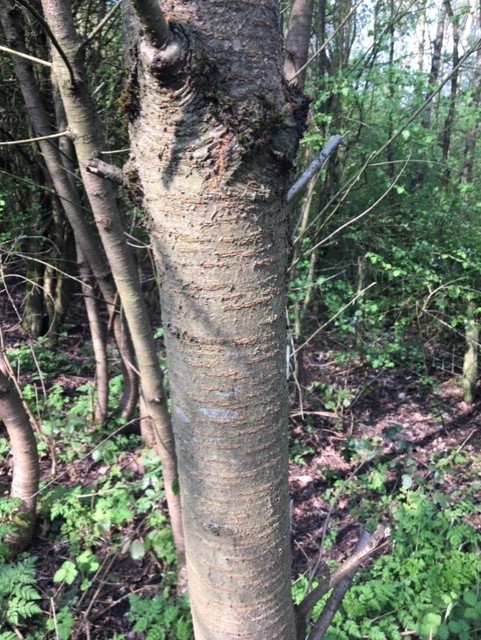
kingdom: Plantae
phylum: Tracheophyta
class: Magnoliopsida
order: Rosales
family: Rosaceae
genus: Prunus
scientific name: Prunus avium
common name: Sweet cherry
